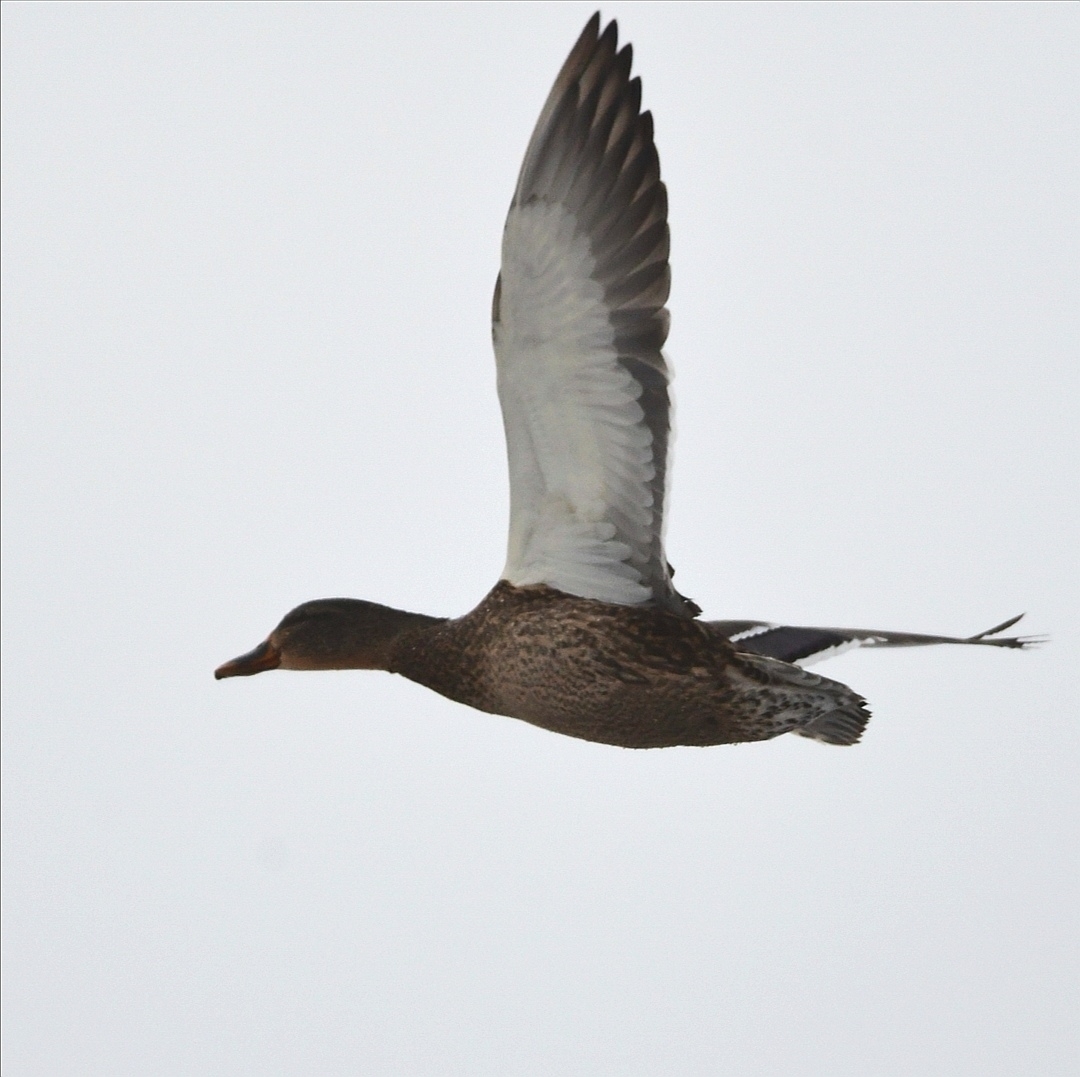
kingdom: Animalia
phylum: Chordata
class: Aves
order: Anseriformes
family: Anatidae
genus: Anas
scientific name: Anas platyrhynchos
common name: Mallard
